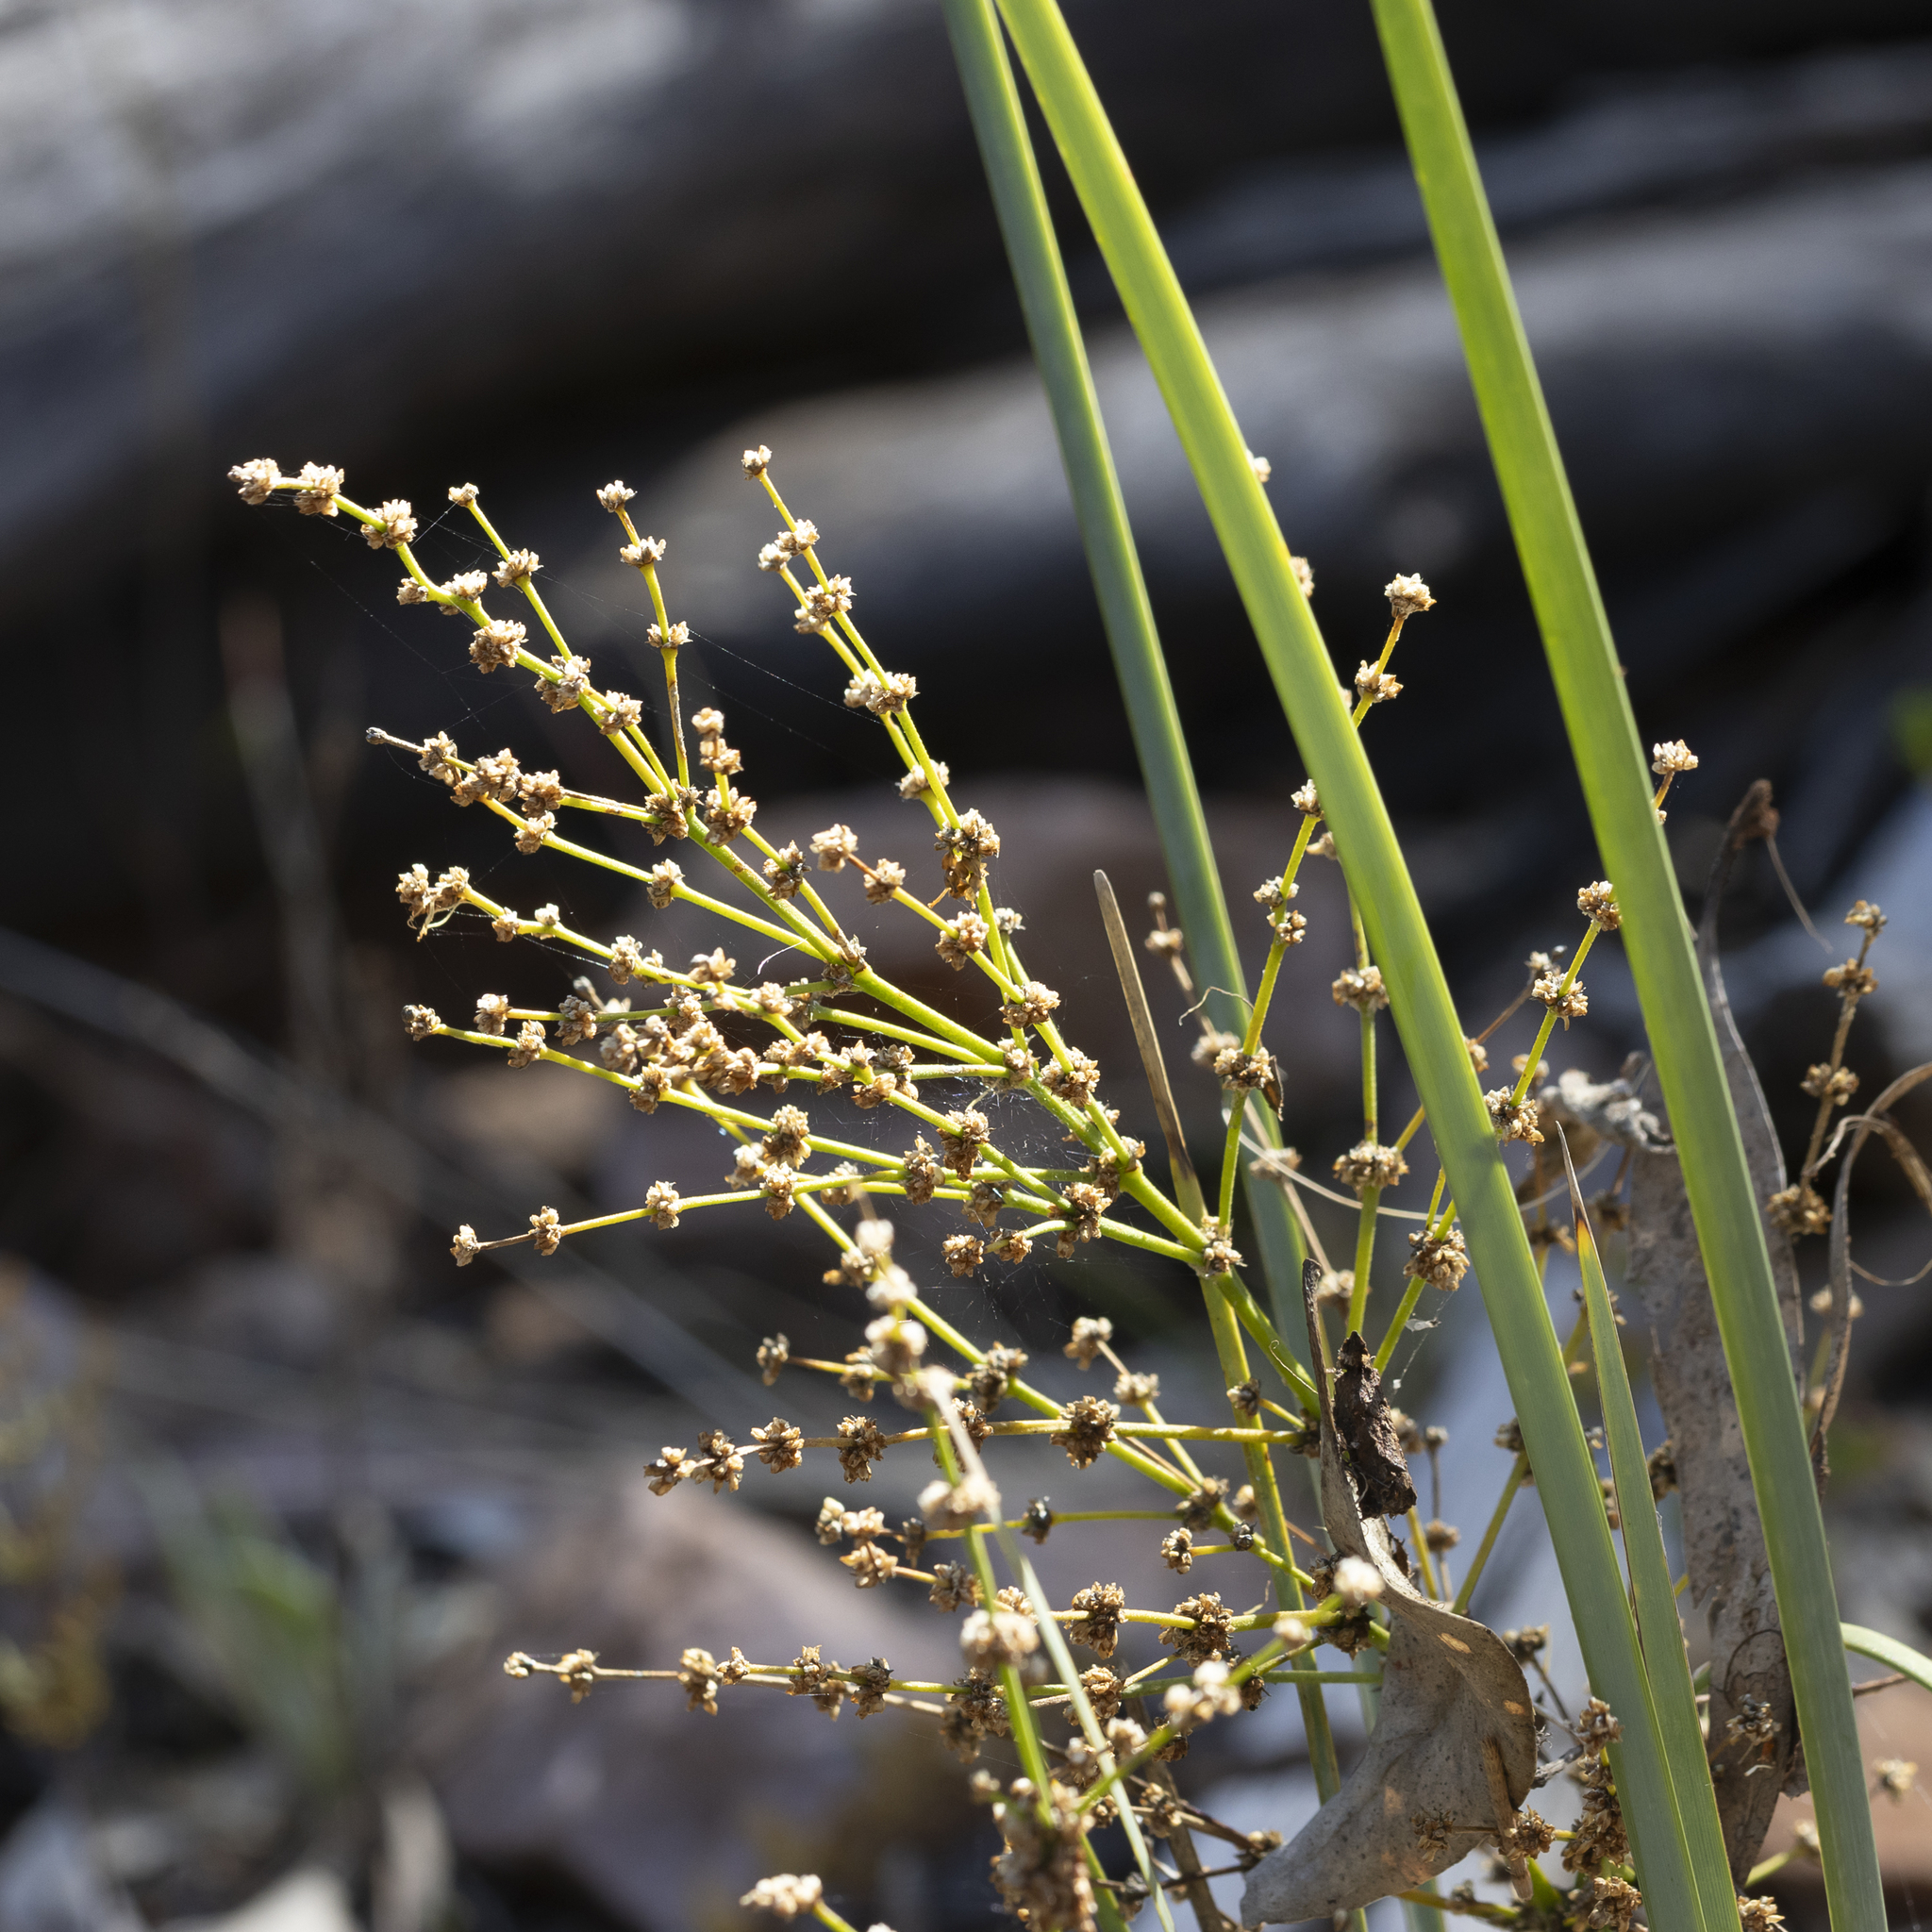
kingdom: Plantae
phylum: Tracheophyta
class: Liliopsida
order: Asparagales
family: Asparagaceae
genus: Lomandra
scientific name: Lomandra multiflora
